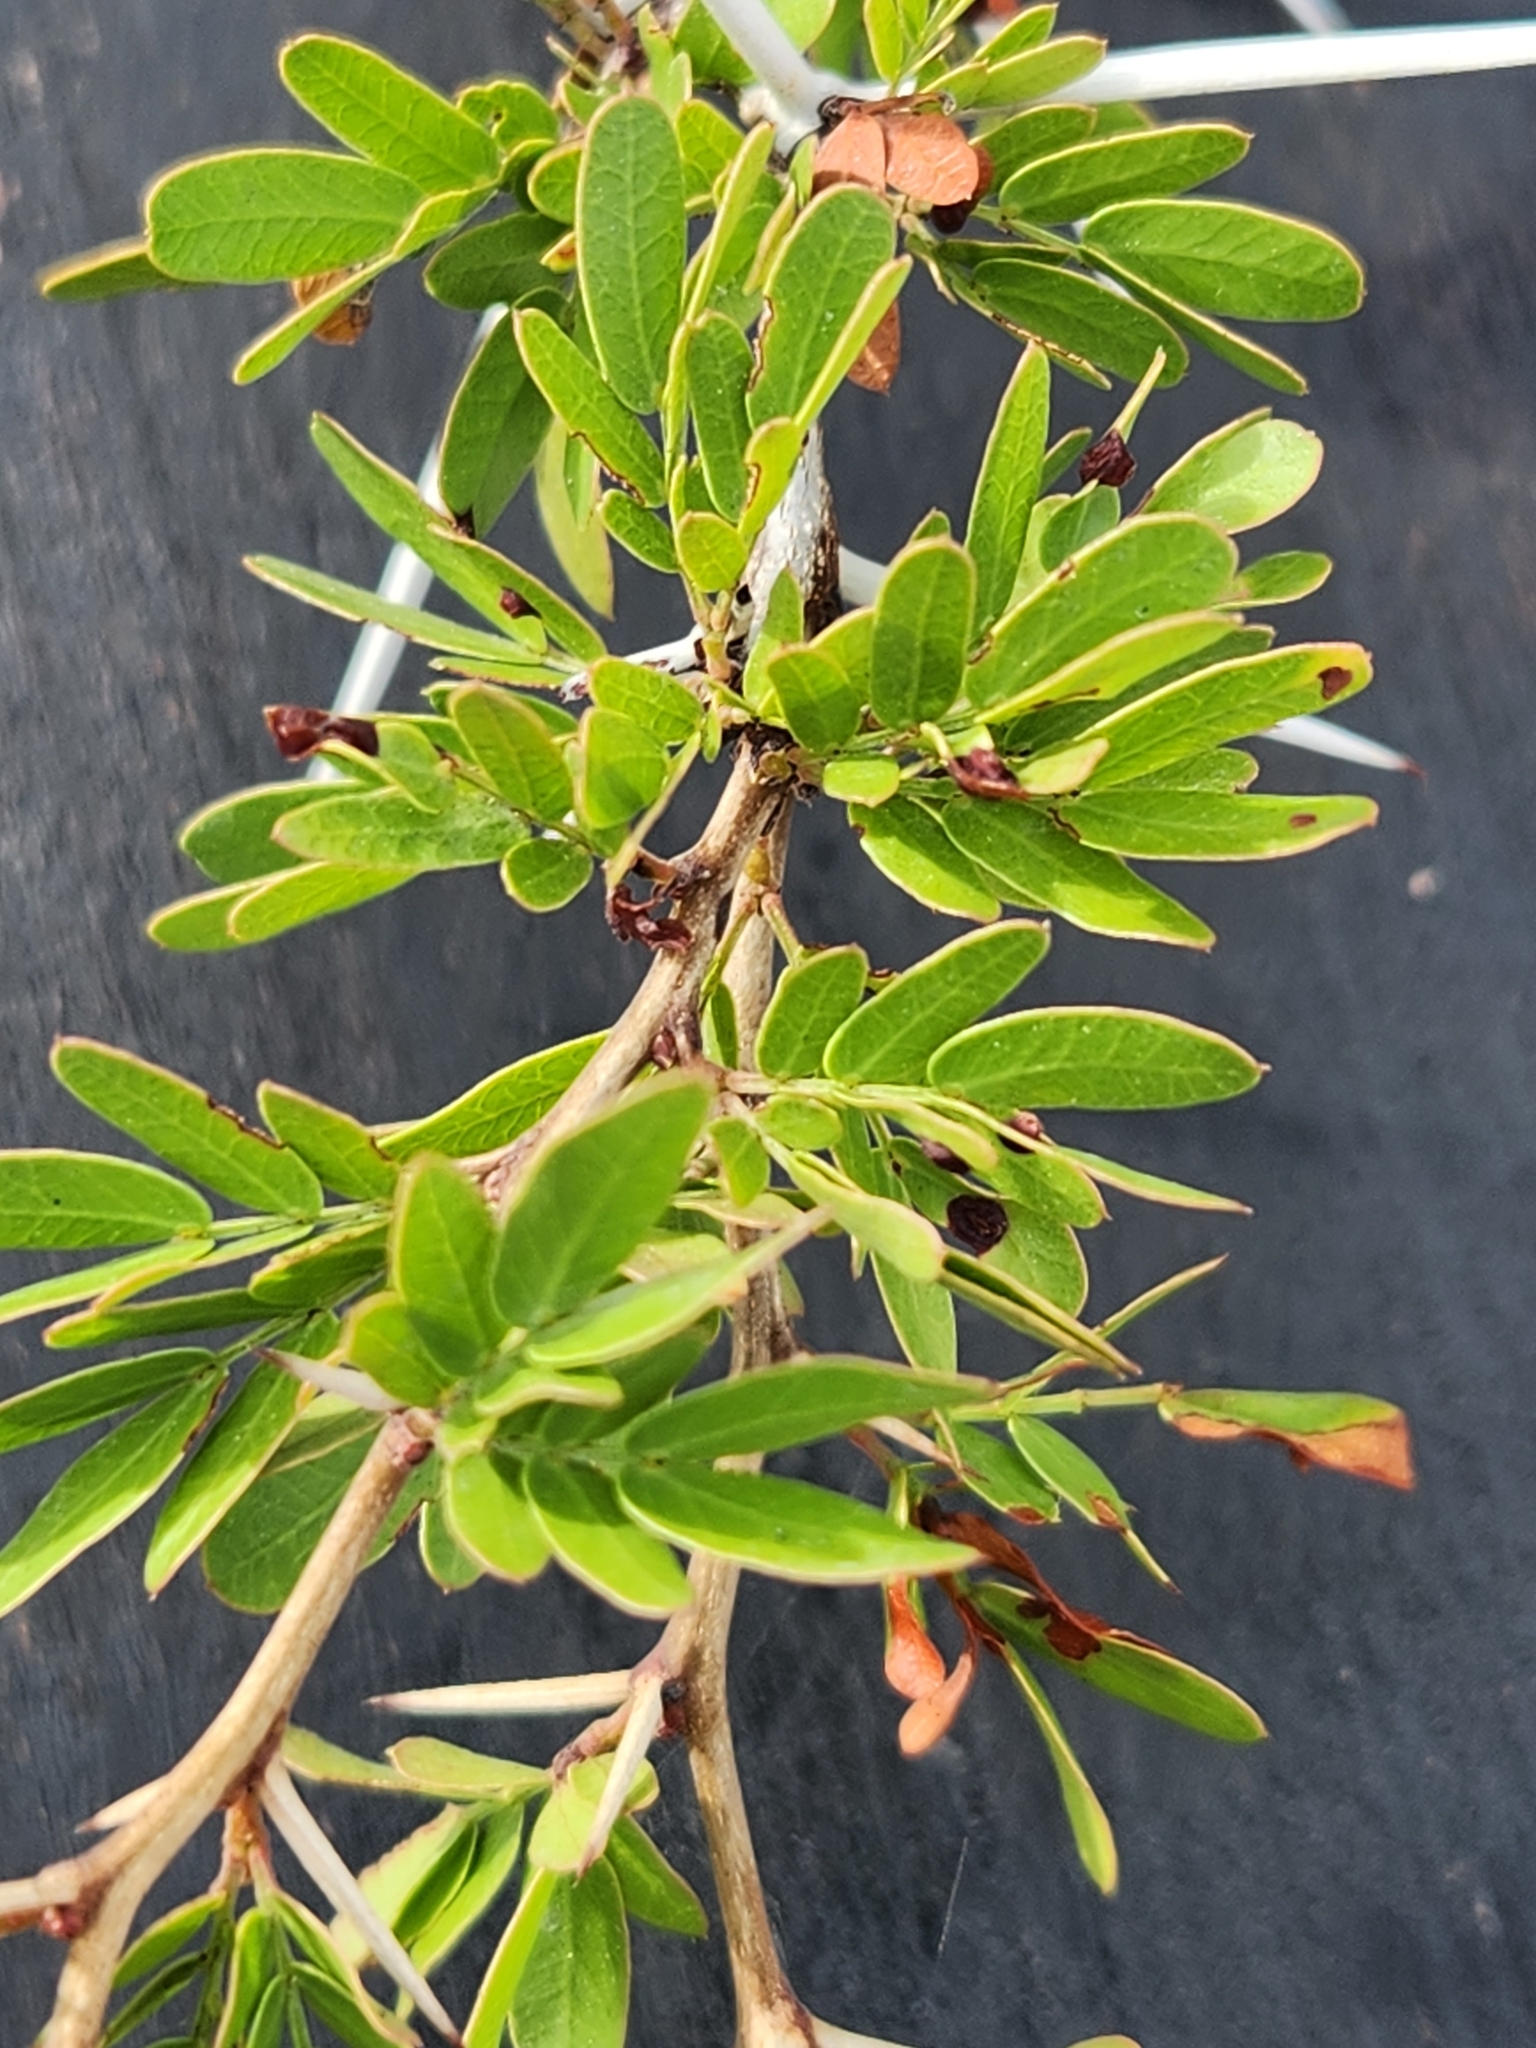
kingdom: Plantae
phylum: Tracheophyta
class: Magnoliopsida
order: Fabales
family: Fabaceae
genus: Vachellia
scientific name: Vachellia rigidula
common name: Blackbrush
